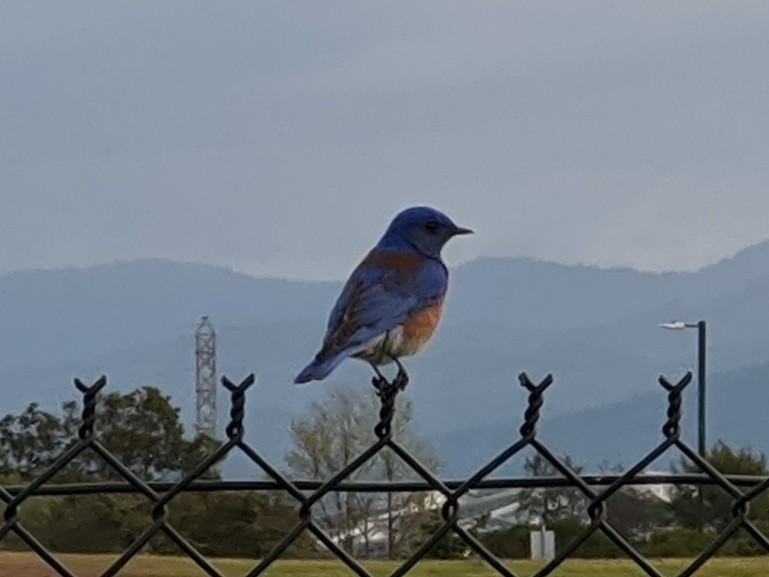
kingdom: Animalia
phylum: Chordata
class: Aves
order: Passeriformes
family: Turdidae
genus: Sialia
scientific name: Sialia mexicana
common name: Western bluebird
